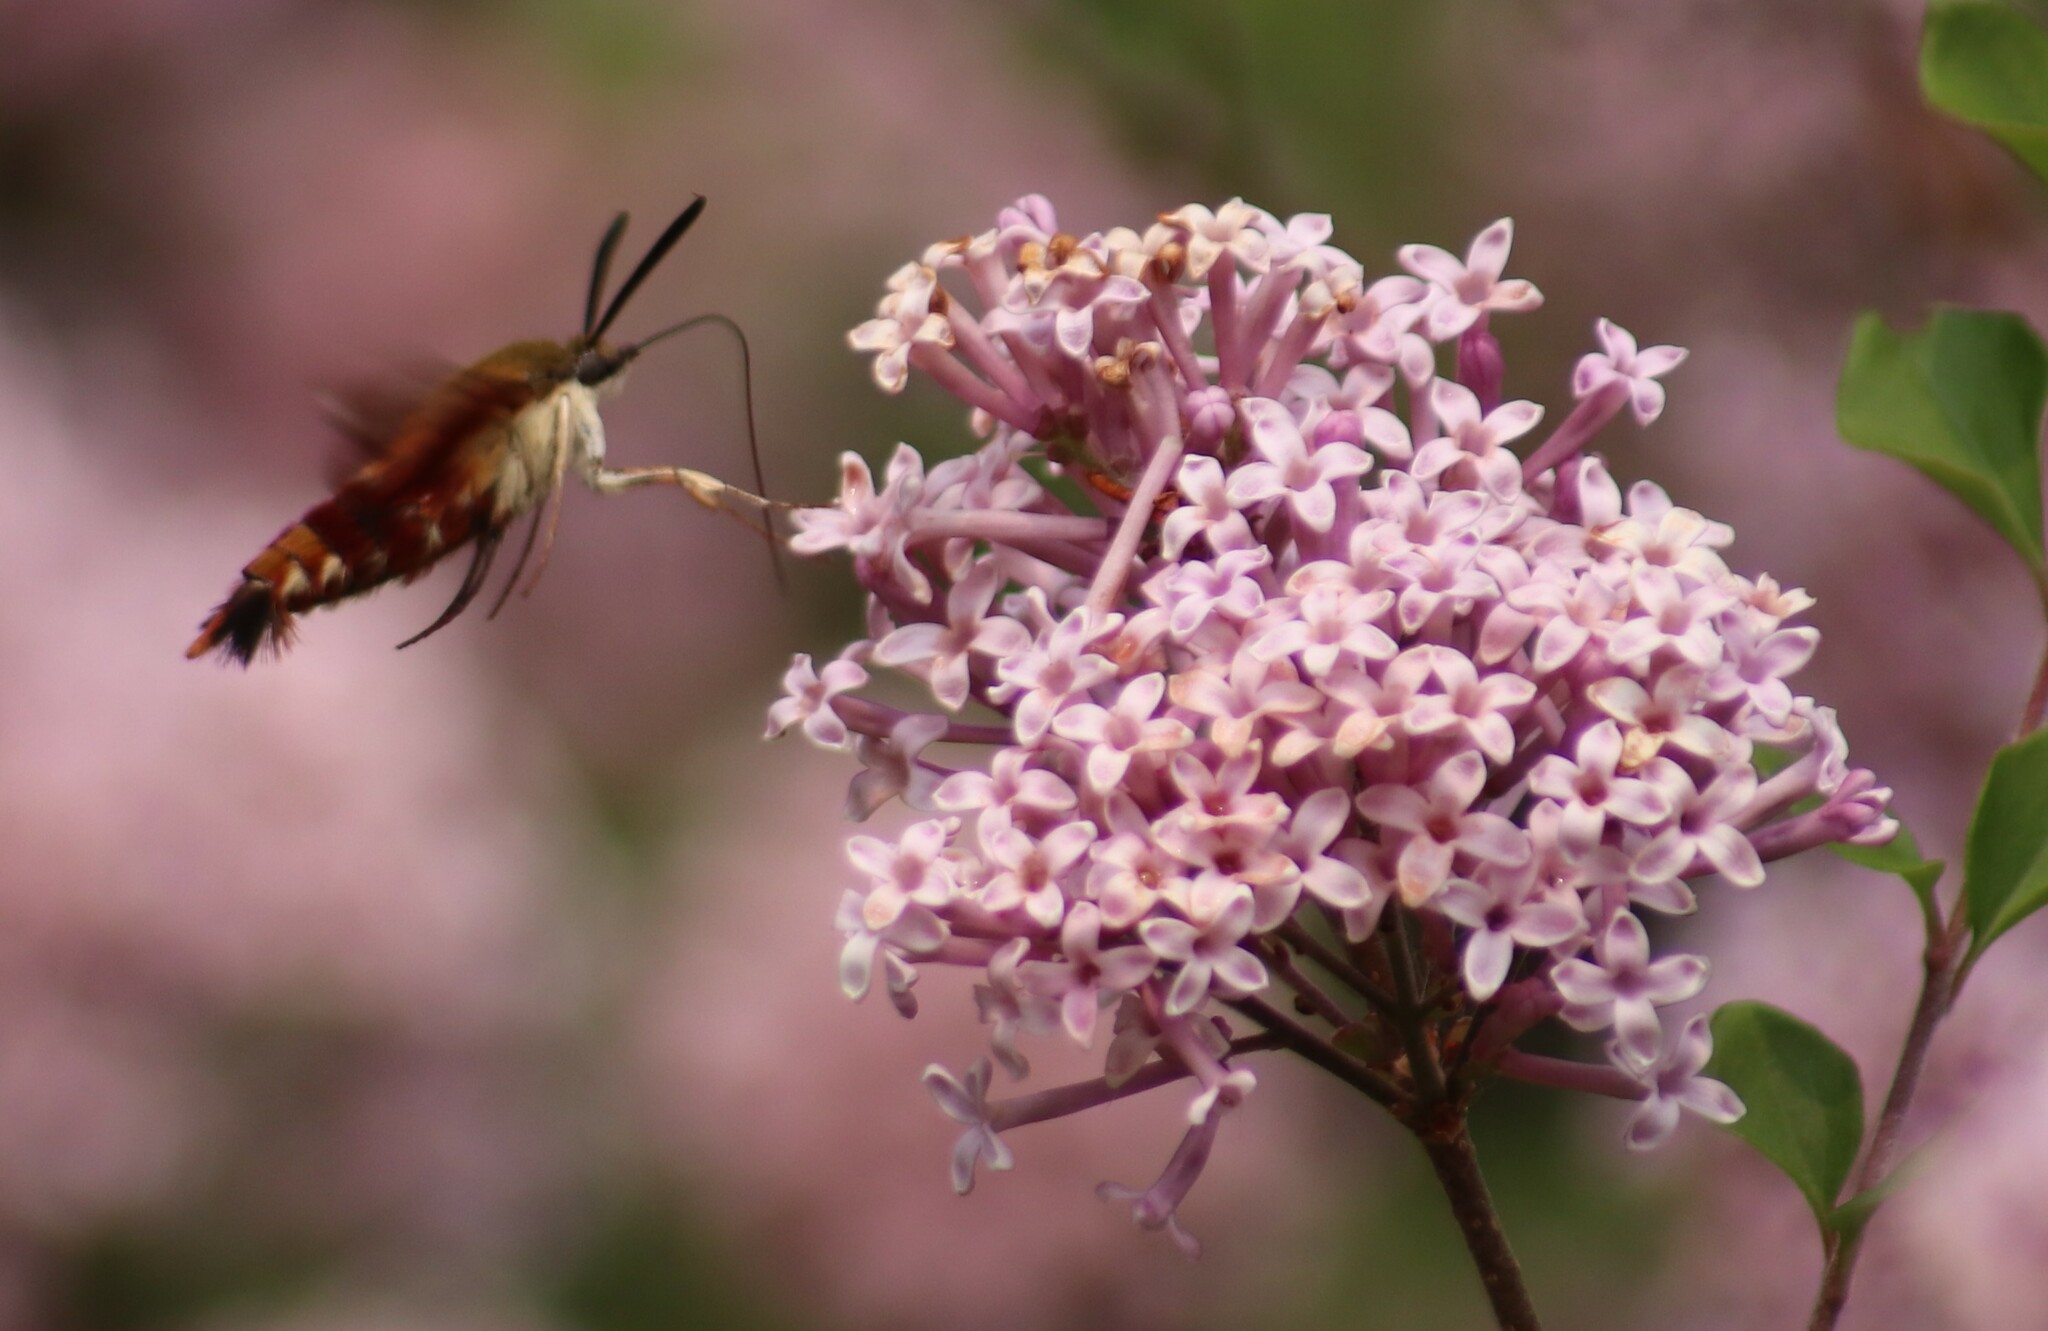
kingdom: Animalia
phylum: Arthropoda
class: Insecta
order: Lepidoptera
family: Sphingidae
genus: Hemaris
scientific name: Hemaris thysbe
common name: Common clear-wing
